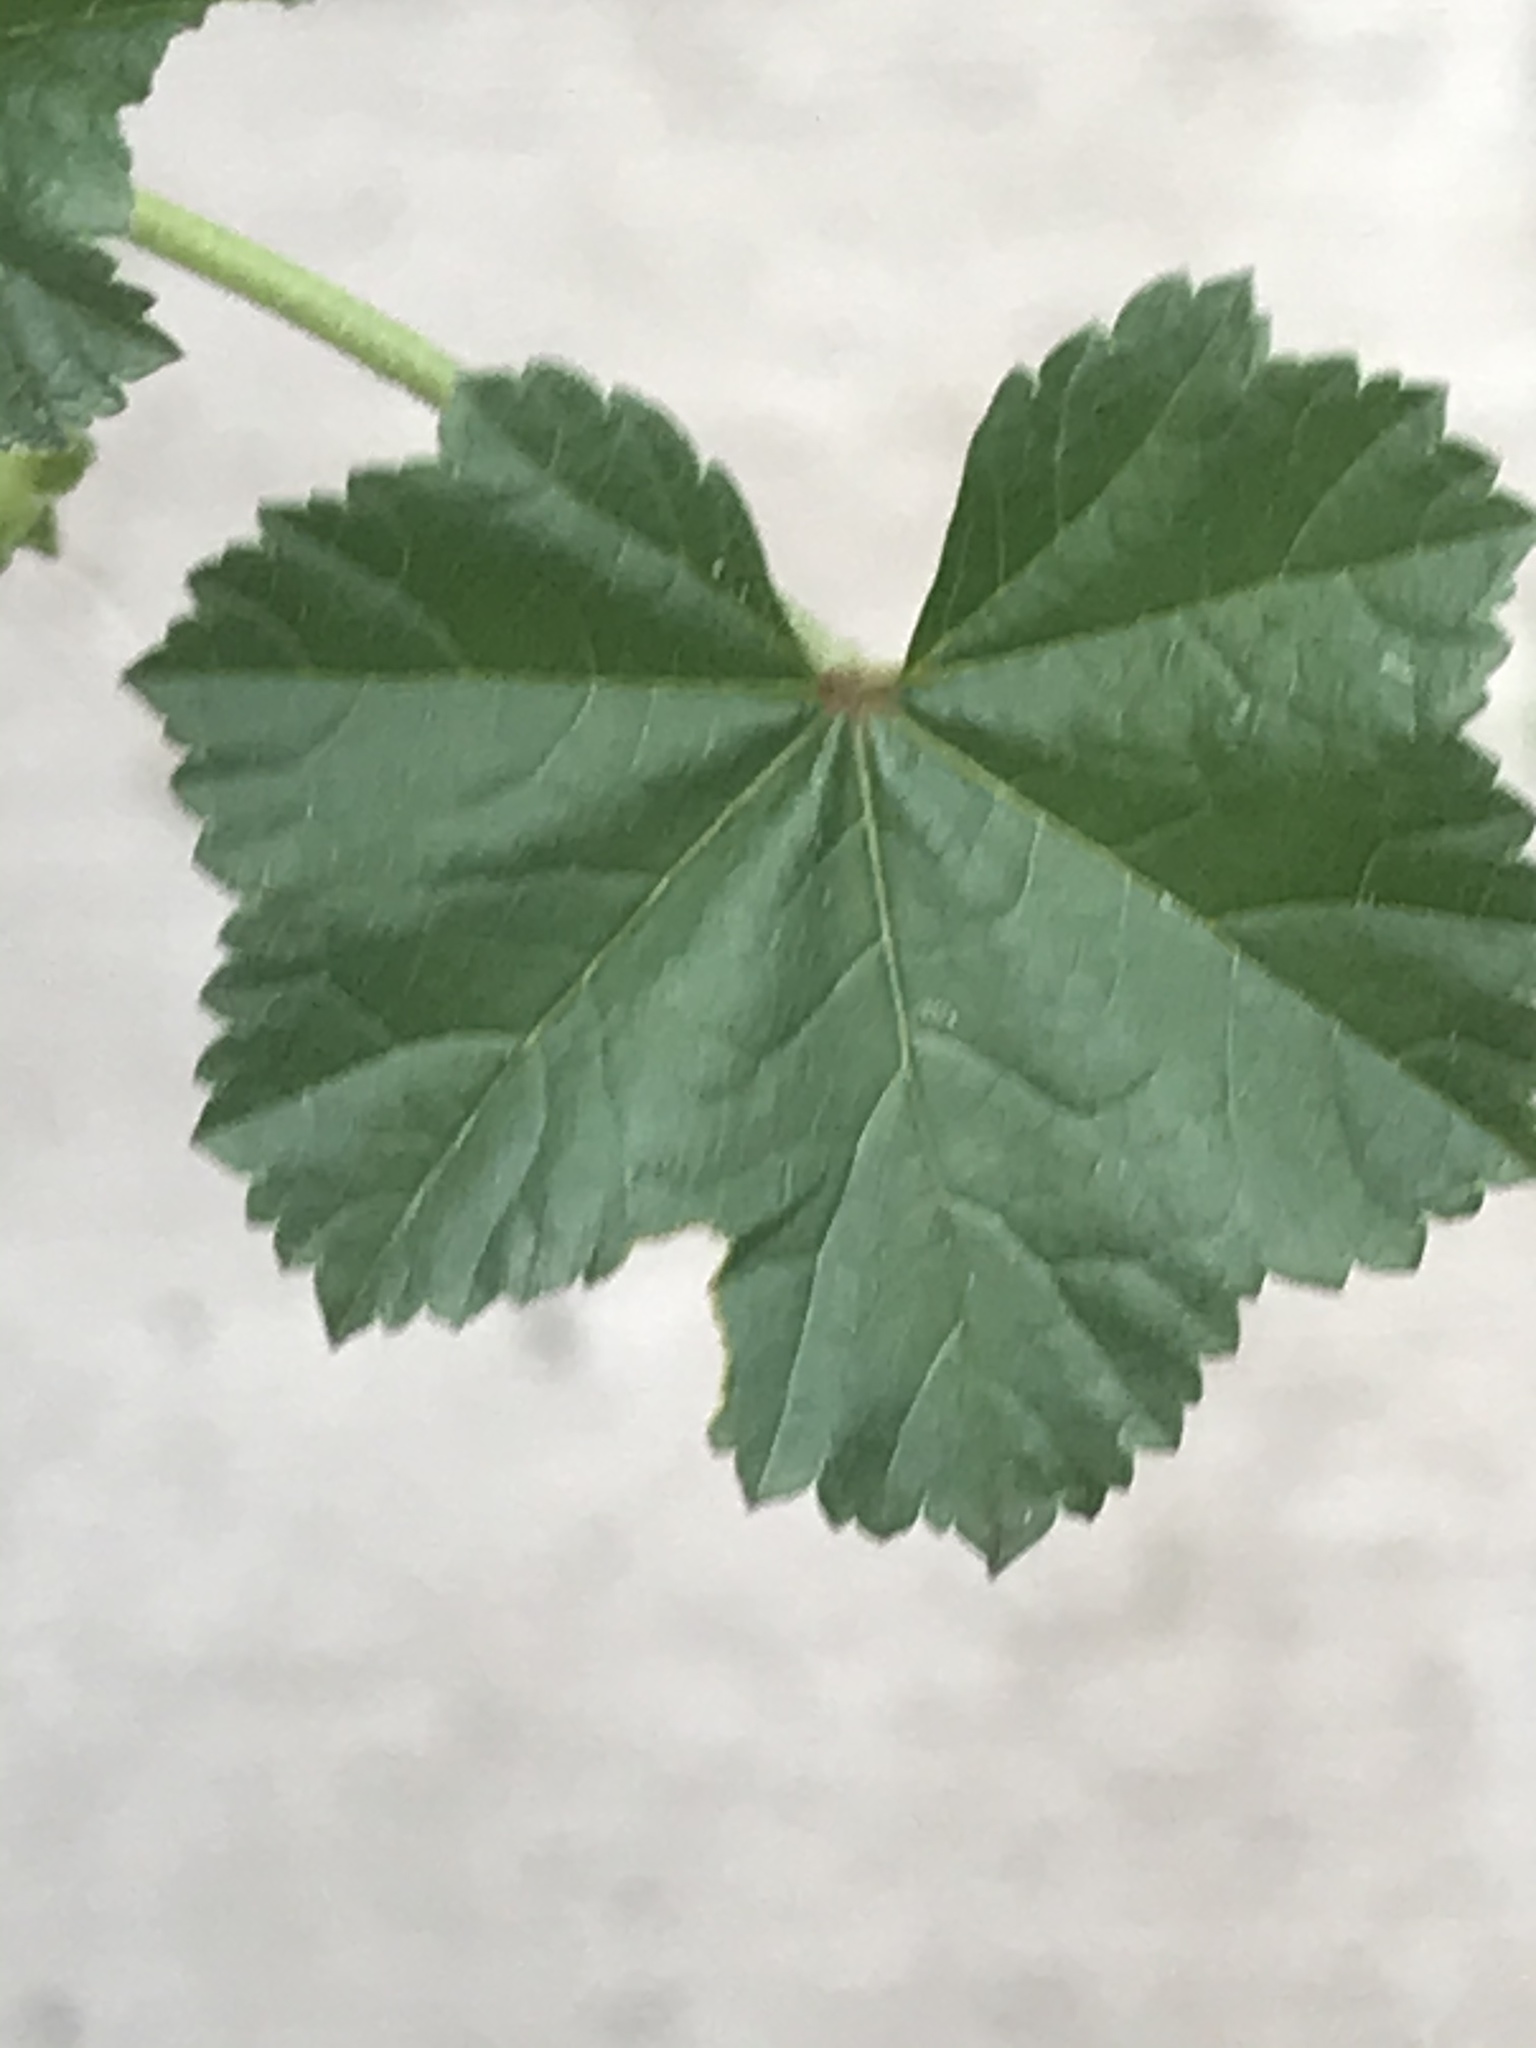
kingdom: Plantae
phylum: Tracheophyta
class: Magnoliopsida
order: Malvales
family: Malvaceae
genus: Malva
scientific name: Malva neglecta
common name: Common mallow
